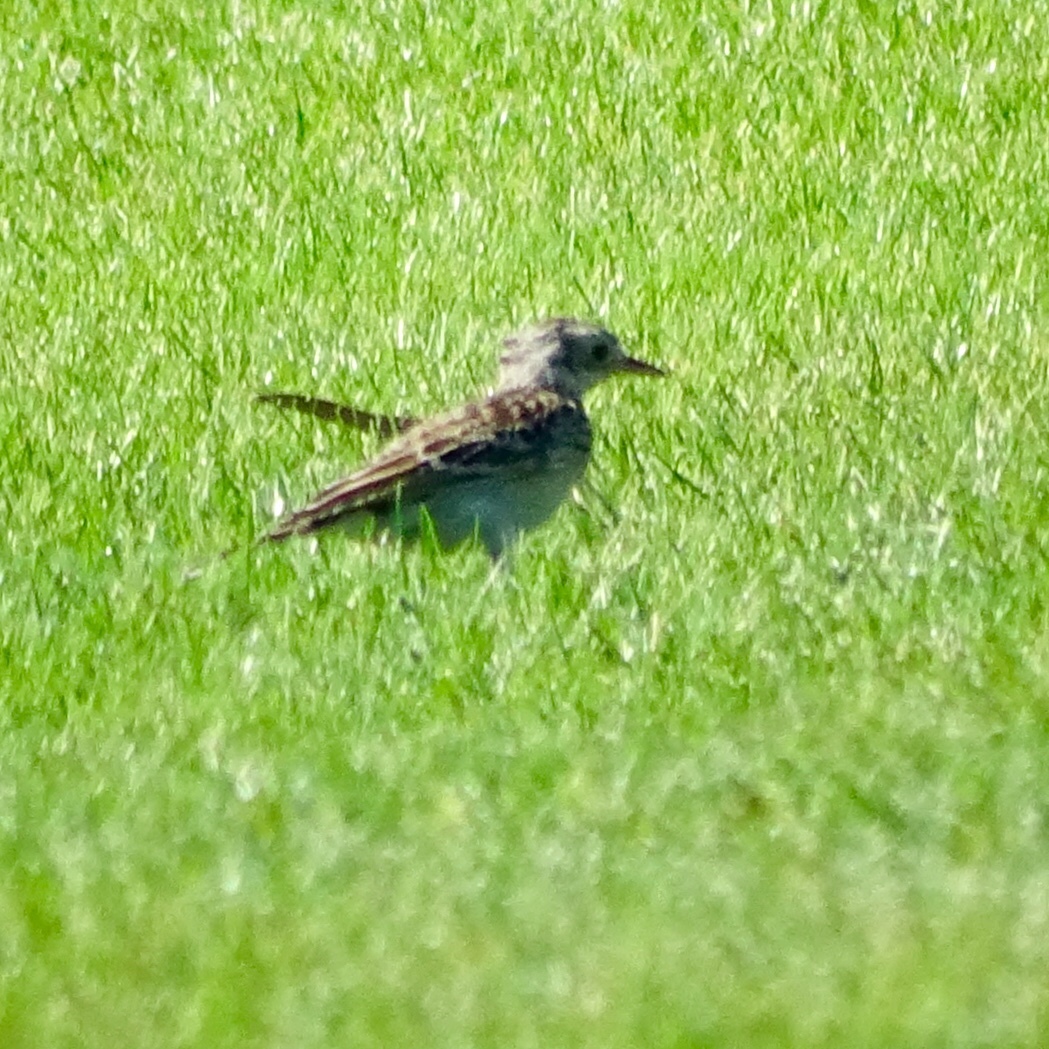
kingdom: Animalia
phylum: Chordata
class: Aves
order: Passeriformes
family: Motacillidae
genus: Anthus
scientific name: Anthus rubescens
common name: Buff-bellied pipit
